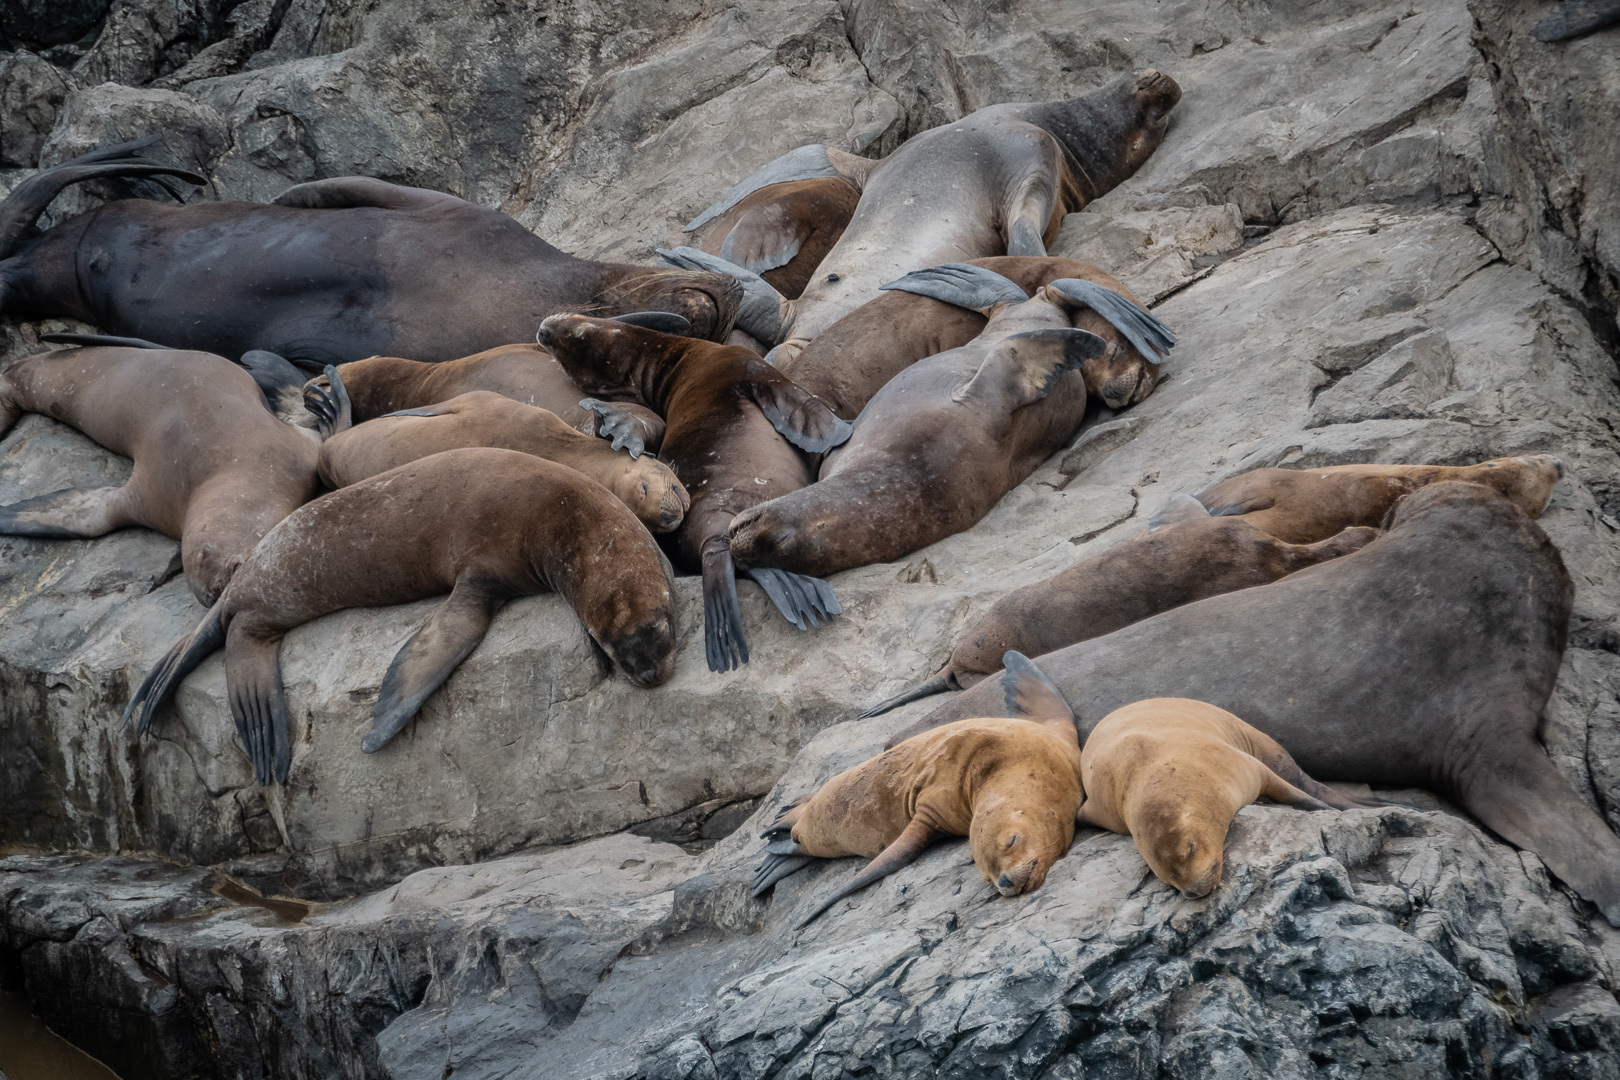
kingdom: Animalia
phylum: Chordata
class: Mammalia
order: Carnivora
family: Otariidae
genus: Otaria
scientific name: Otaria byronia
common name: South american sea lion
